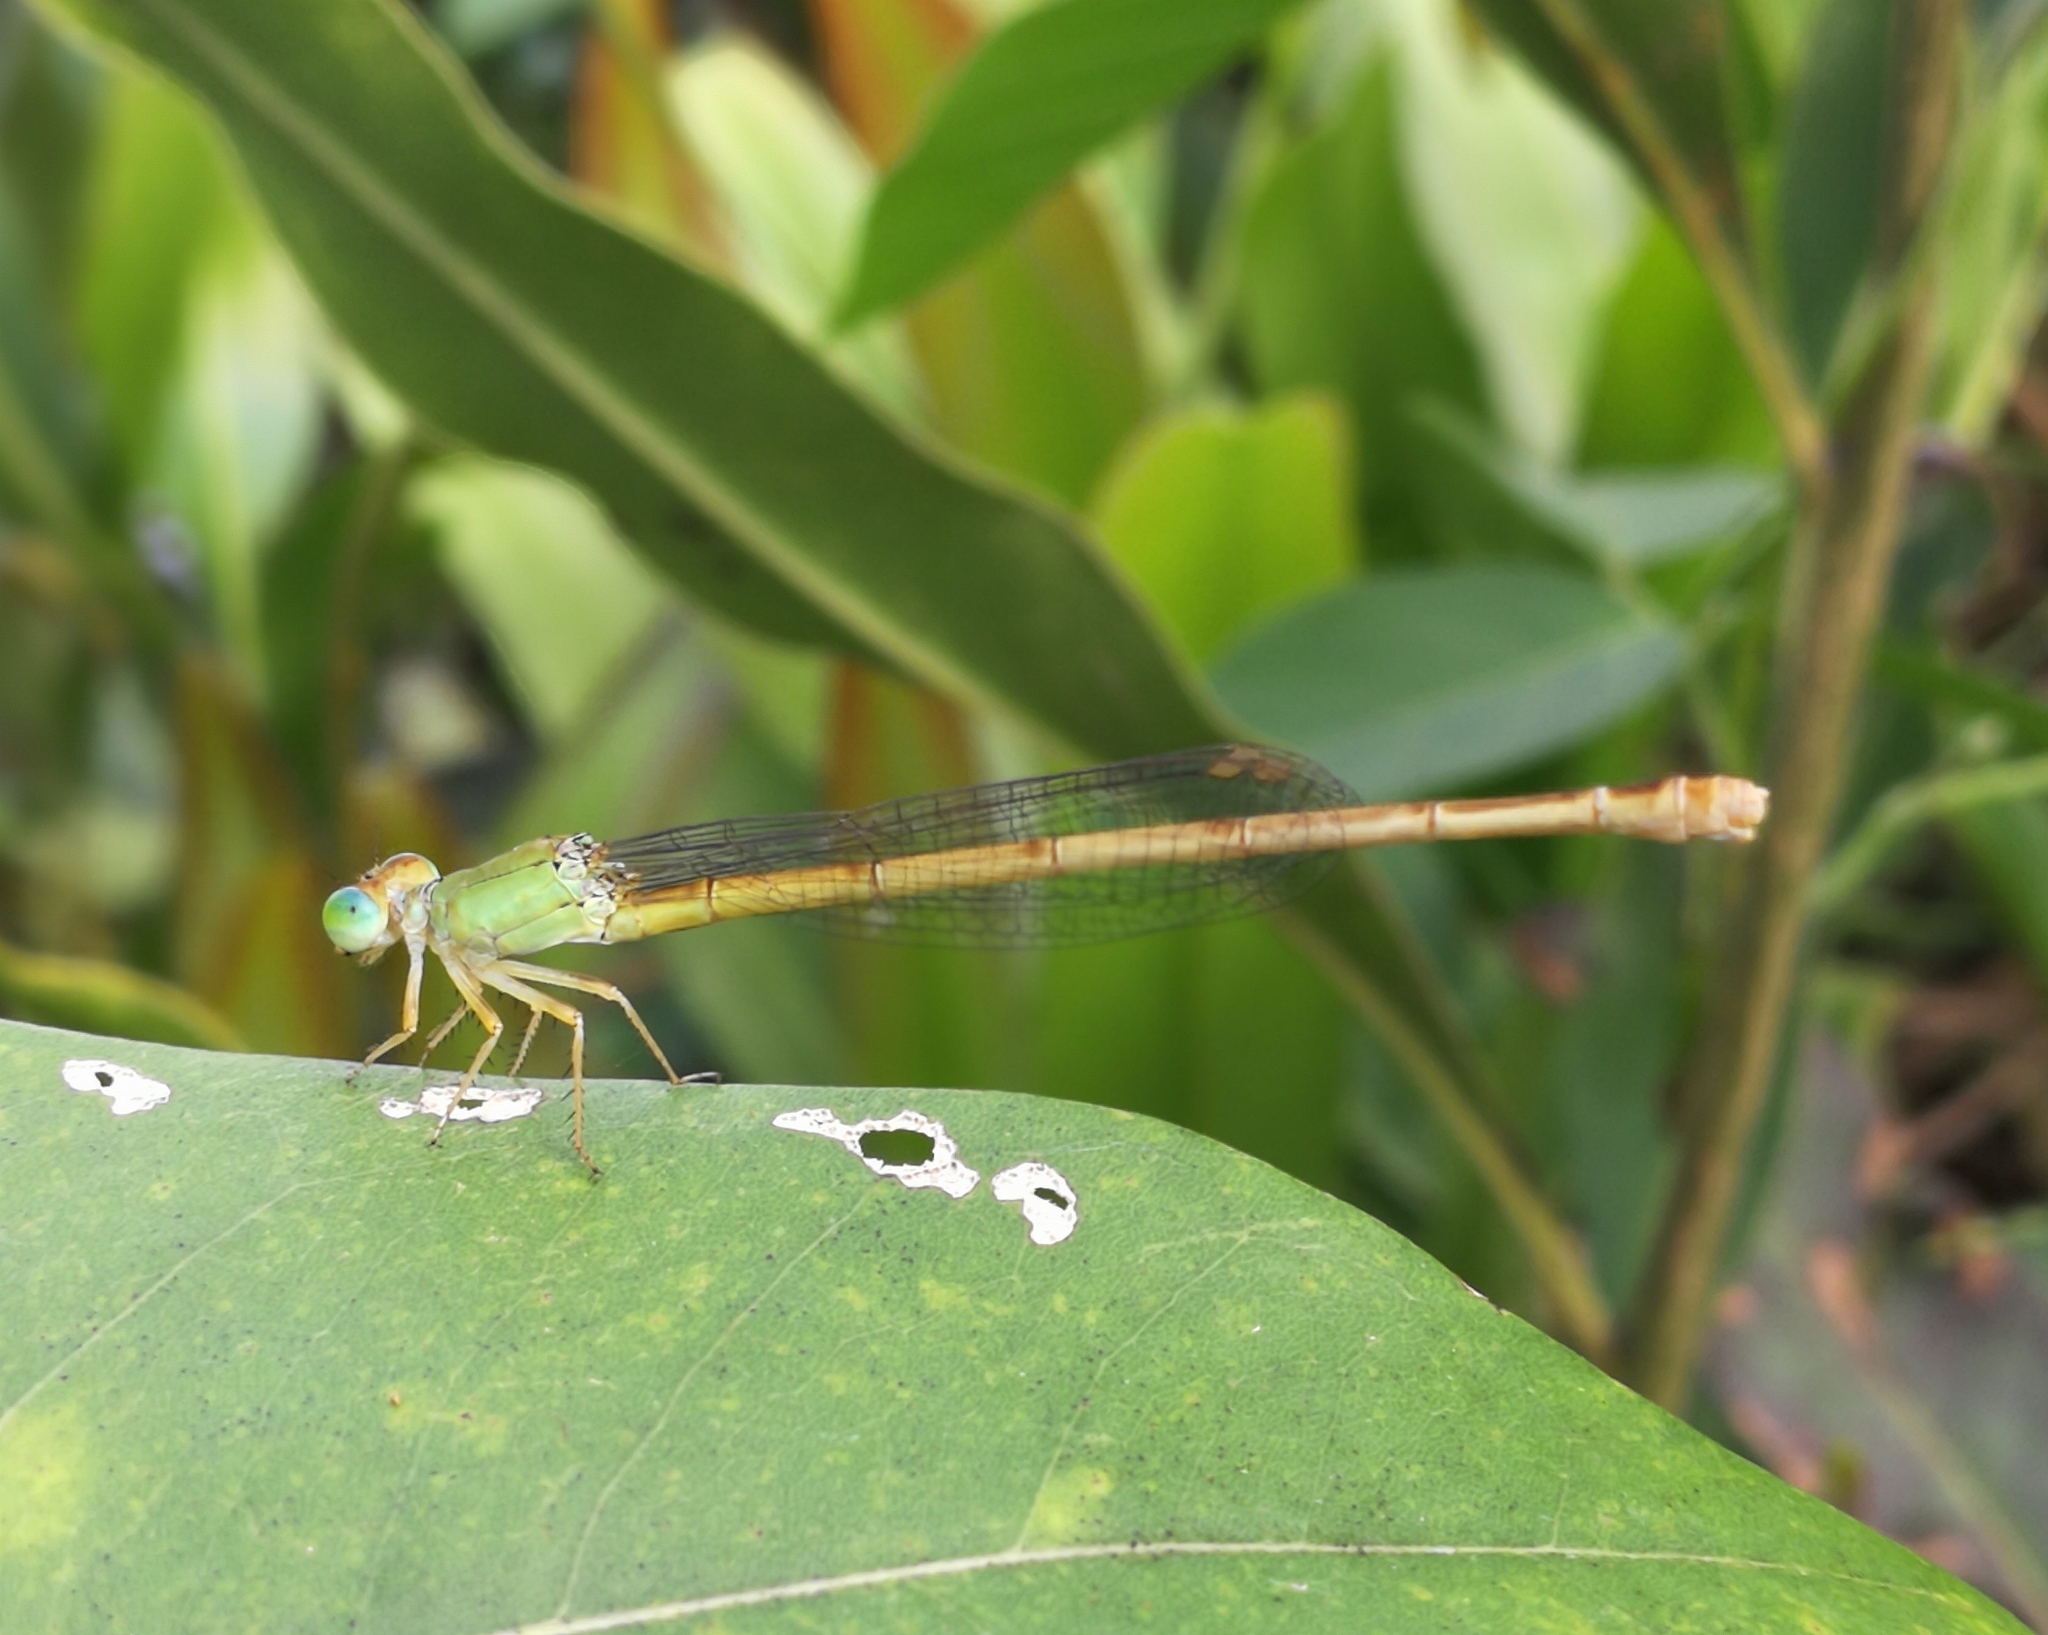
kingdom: Animalia
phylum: Arthropoda
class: Insecta
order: Odonata
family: Coenagrionidae
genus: Ceriagrion
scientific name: Ceriagrion coromandelianum
